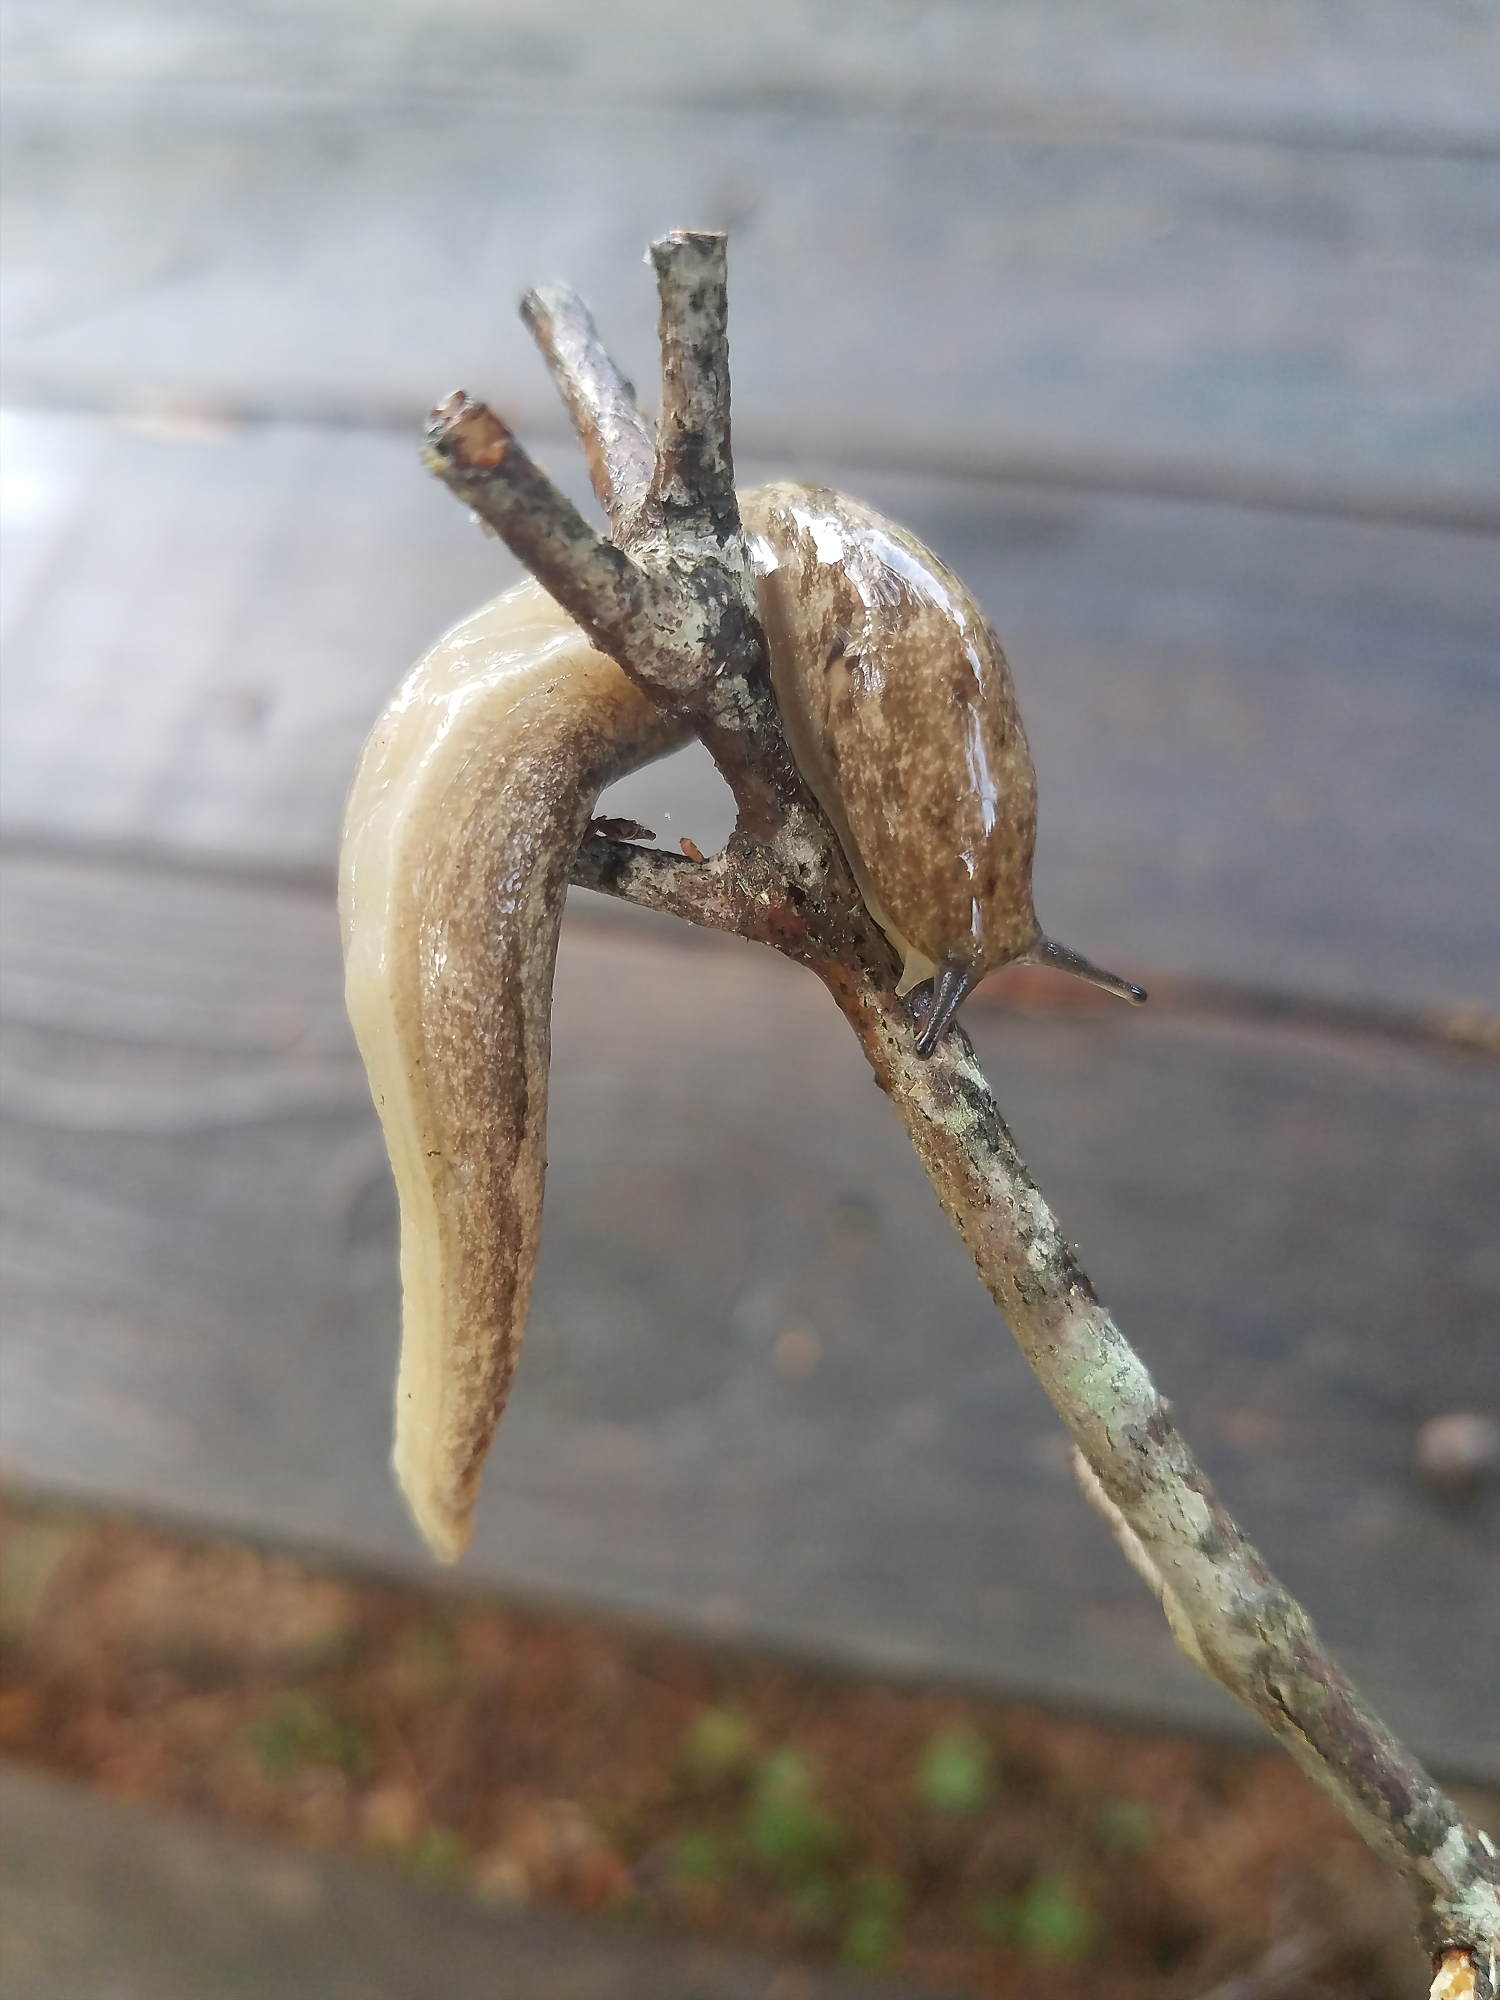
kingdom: Animalia
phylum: Mollusca
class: Gastropoda
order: Stylommatophora
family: Philomycidae
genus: Megapallifera
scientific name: Megapallifera mutabilis
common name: Changeable mantleslug
